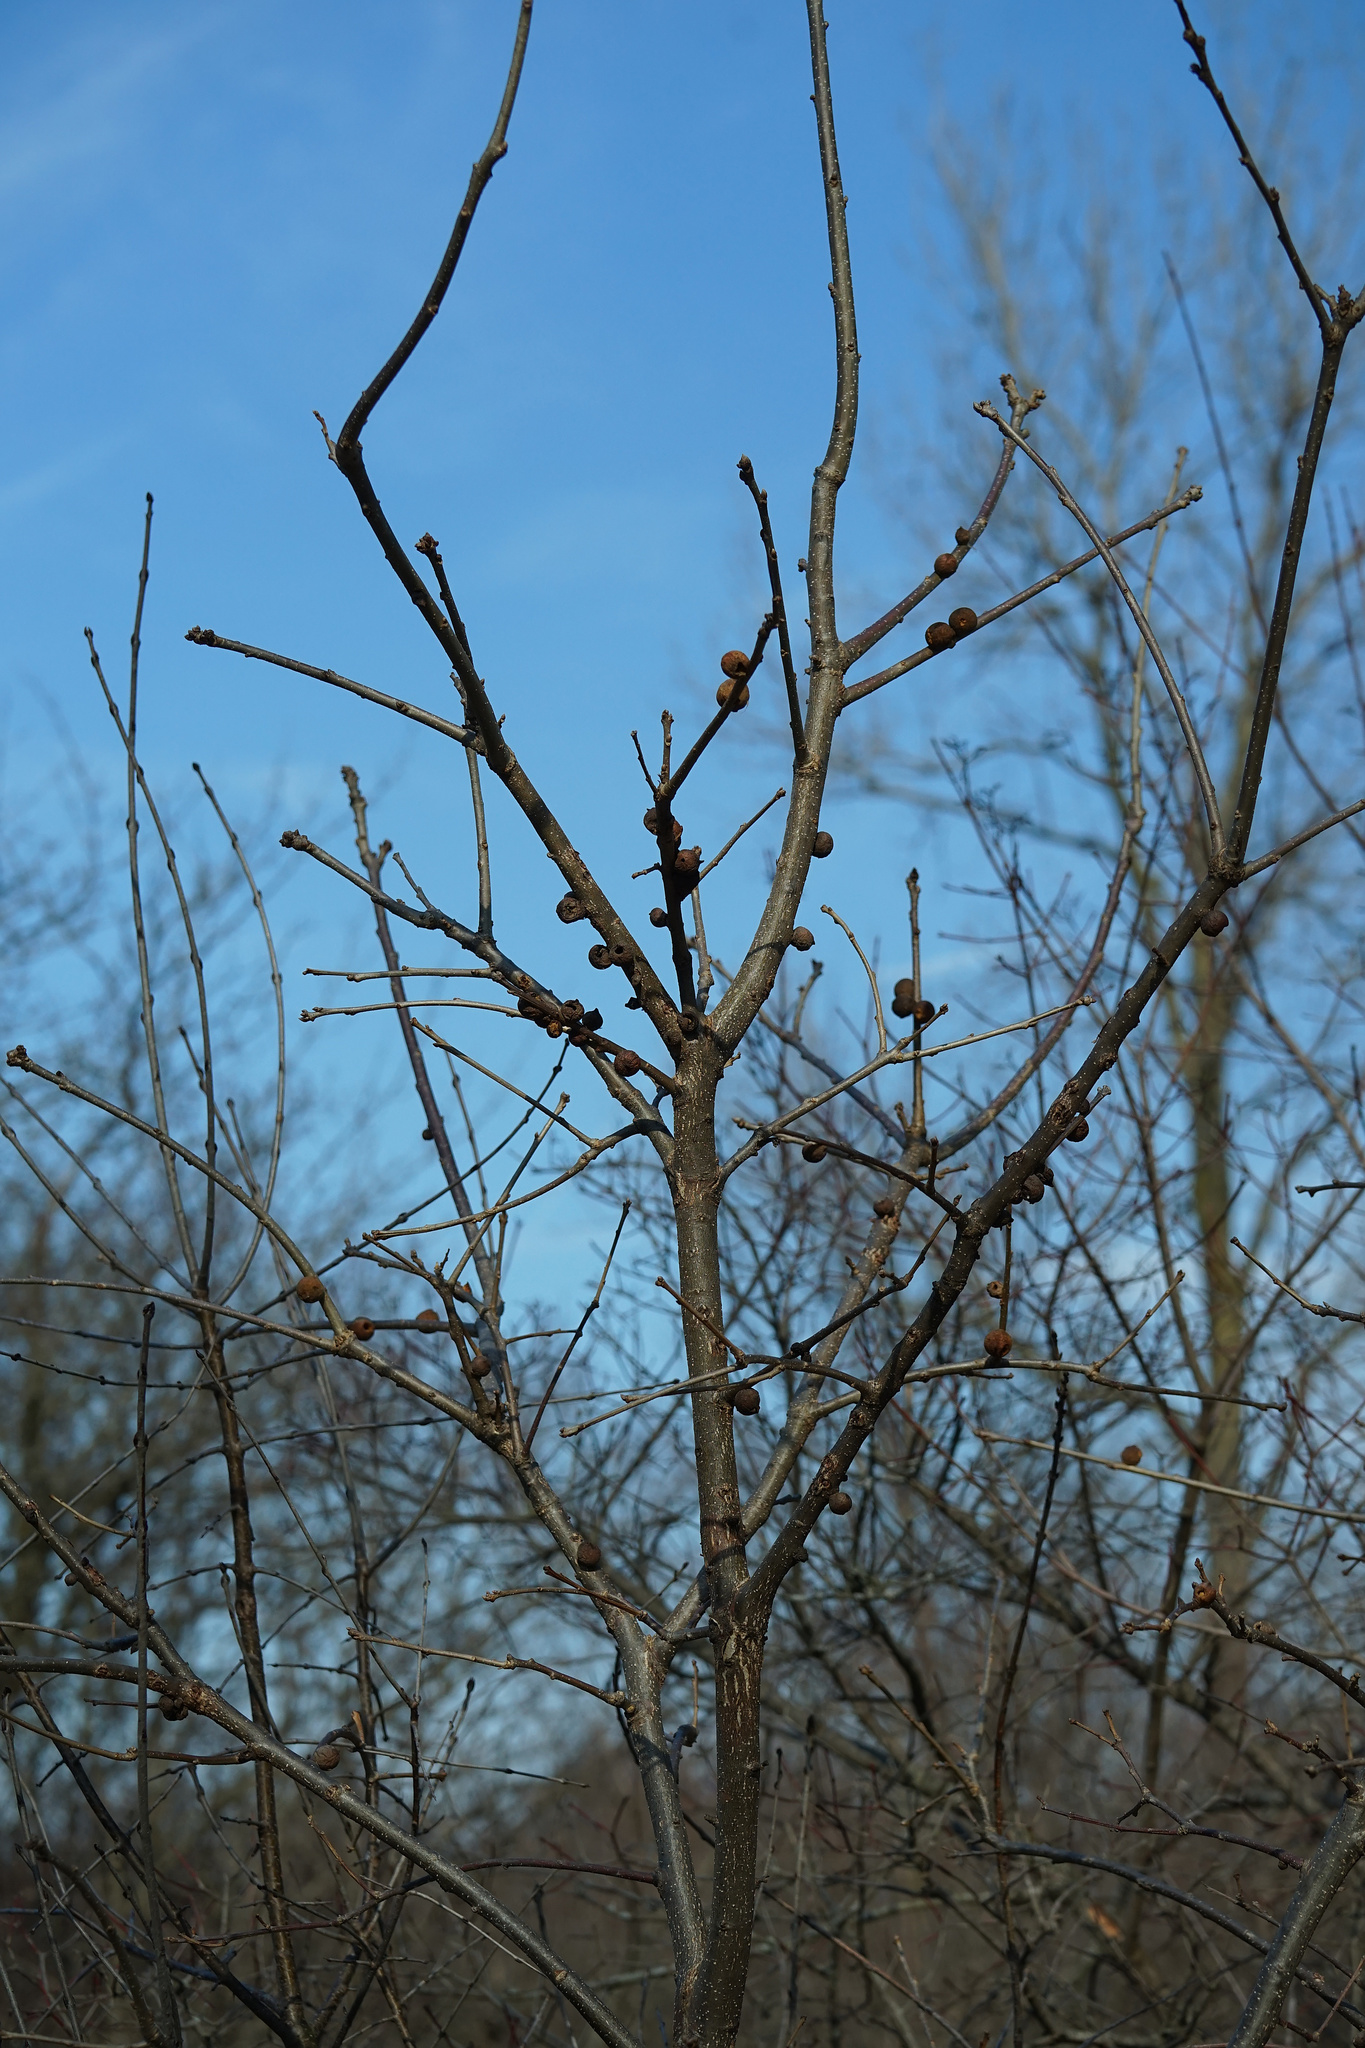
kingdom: Animalia
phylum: Arthropoda
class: Insecta
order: Hymenoptera
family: Cynipidae
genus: Disholcaspis
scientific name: Disholcaspis
